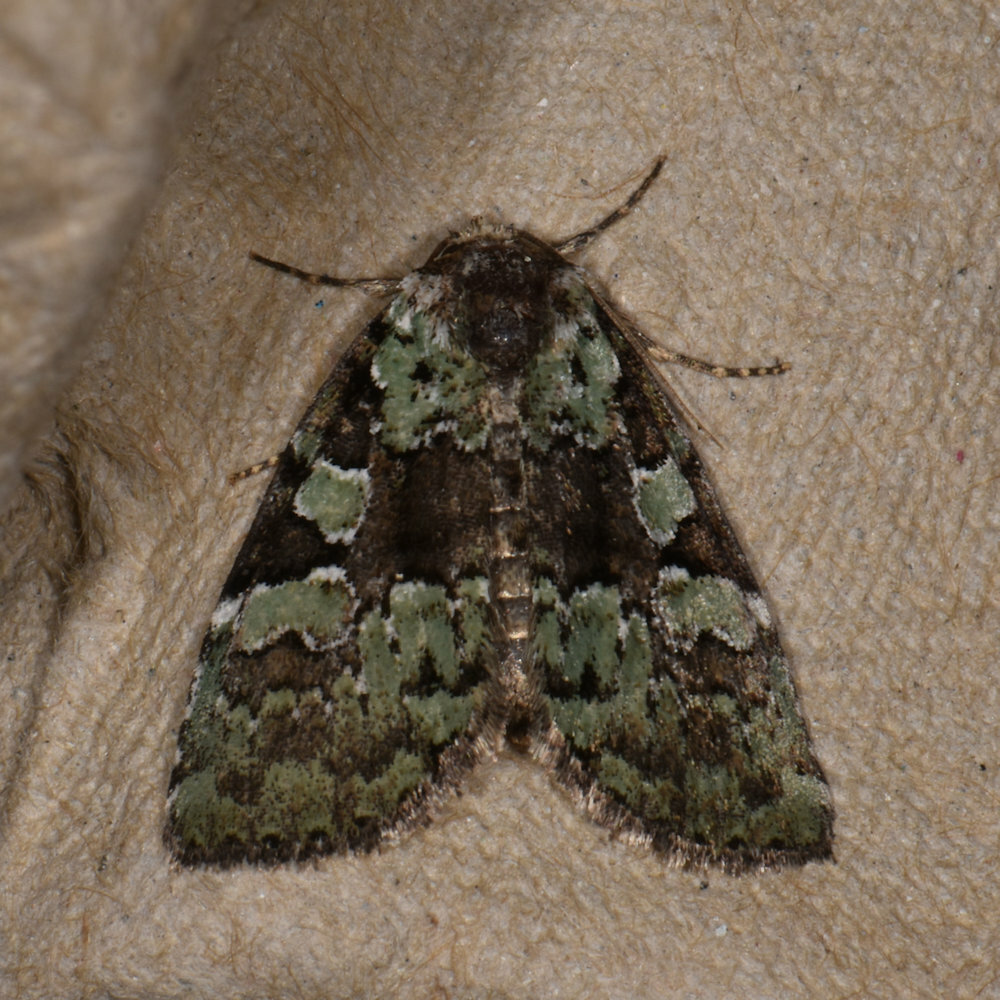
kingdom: Animalia
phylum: Arthropoda
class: Insecta
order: Lepidoptera
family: Noctuidae
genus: Leuconycta
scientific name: Leuconycta lepidula
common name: Marbled-green leuconycta moth
